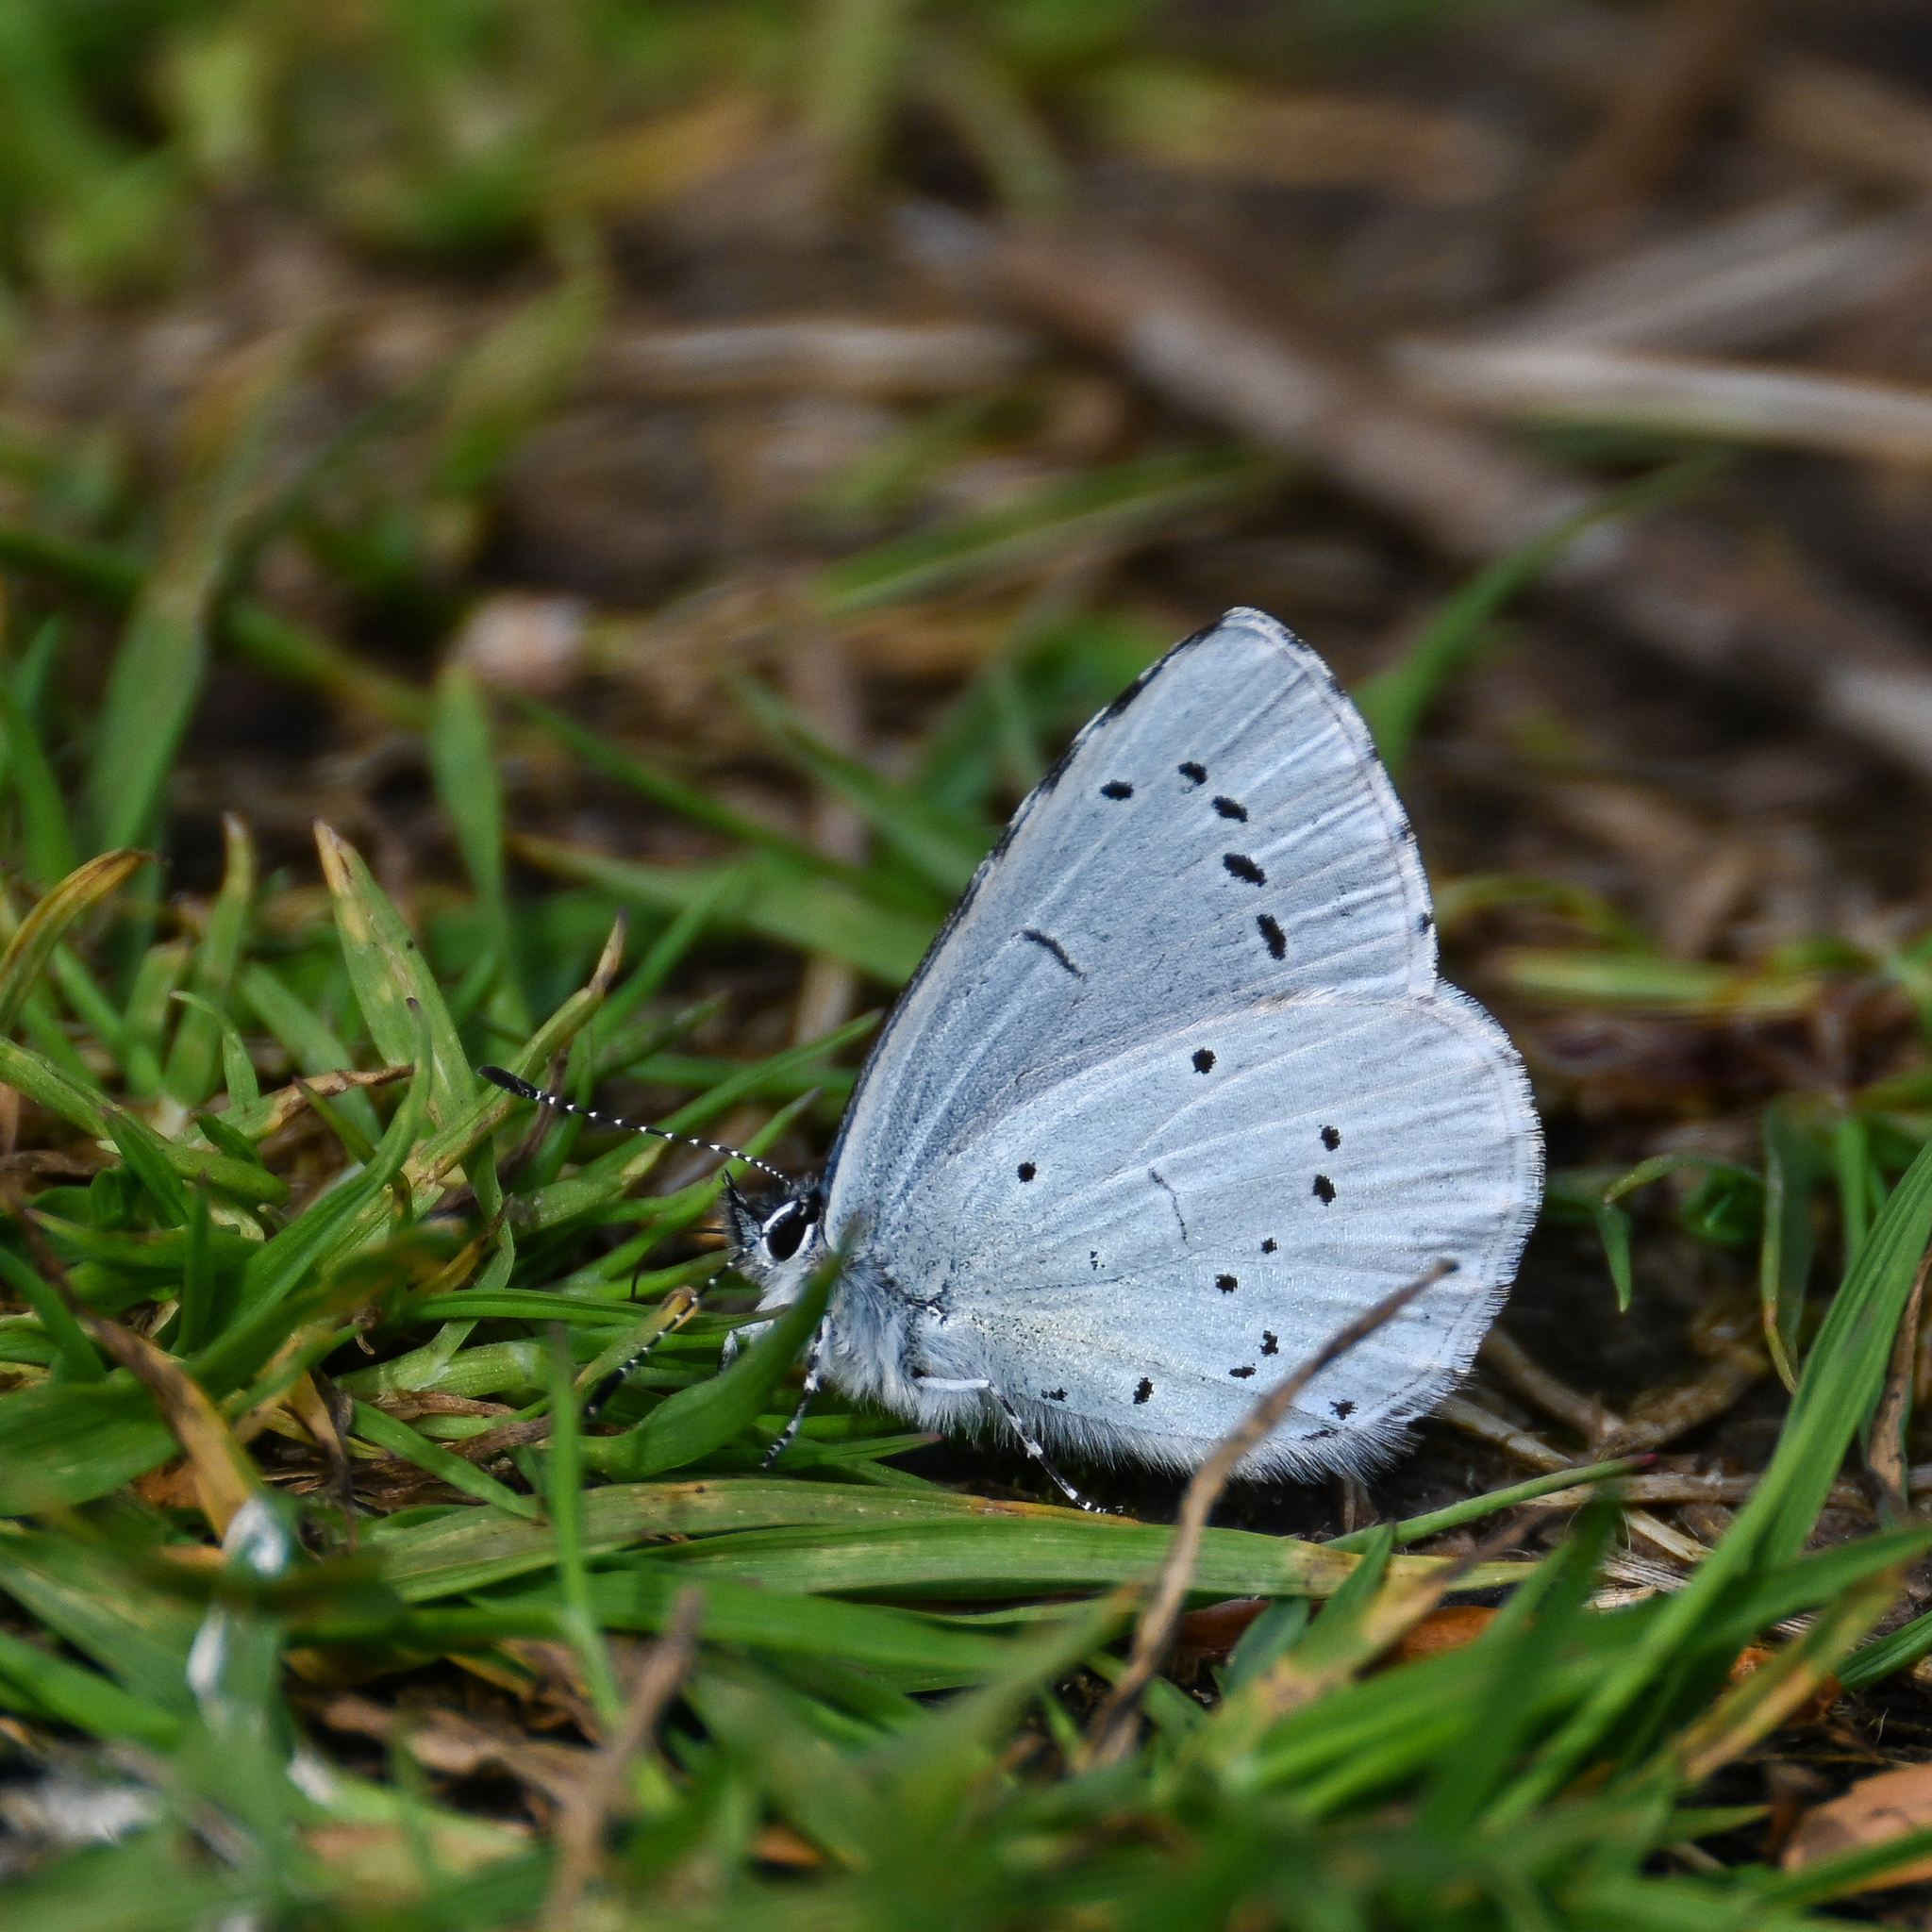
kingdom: Animalia
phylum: Arthropoda
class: Insecta
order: Lepidoptera
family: Lycaenidae
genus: Celastrina
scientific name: Celastrina argiolus
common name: Holly blue
